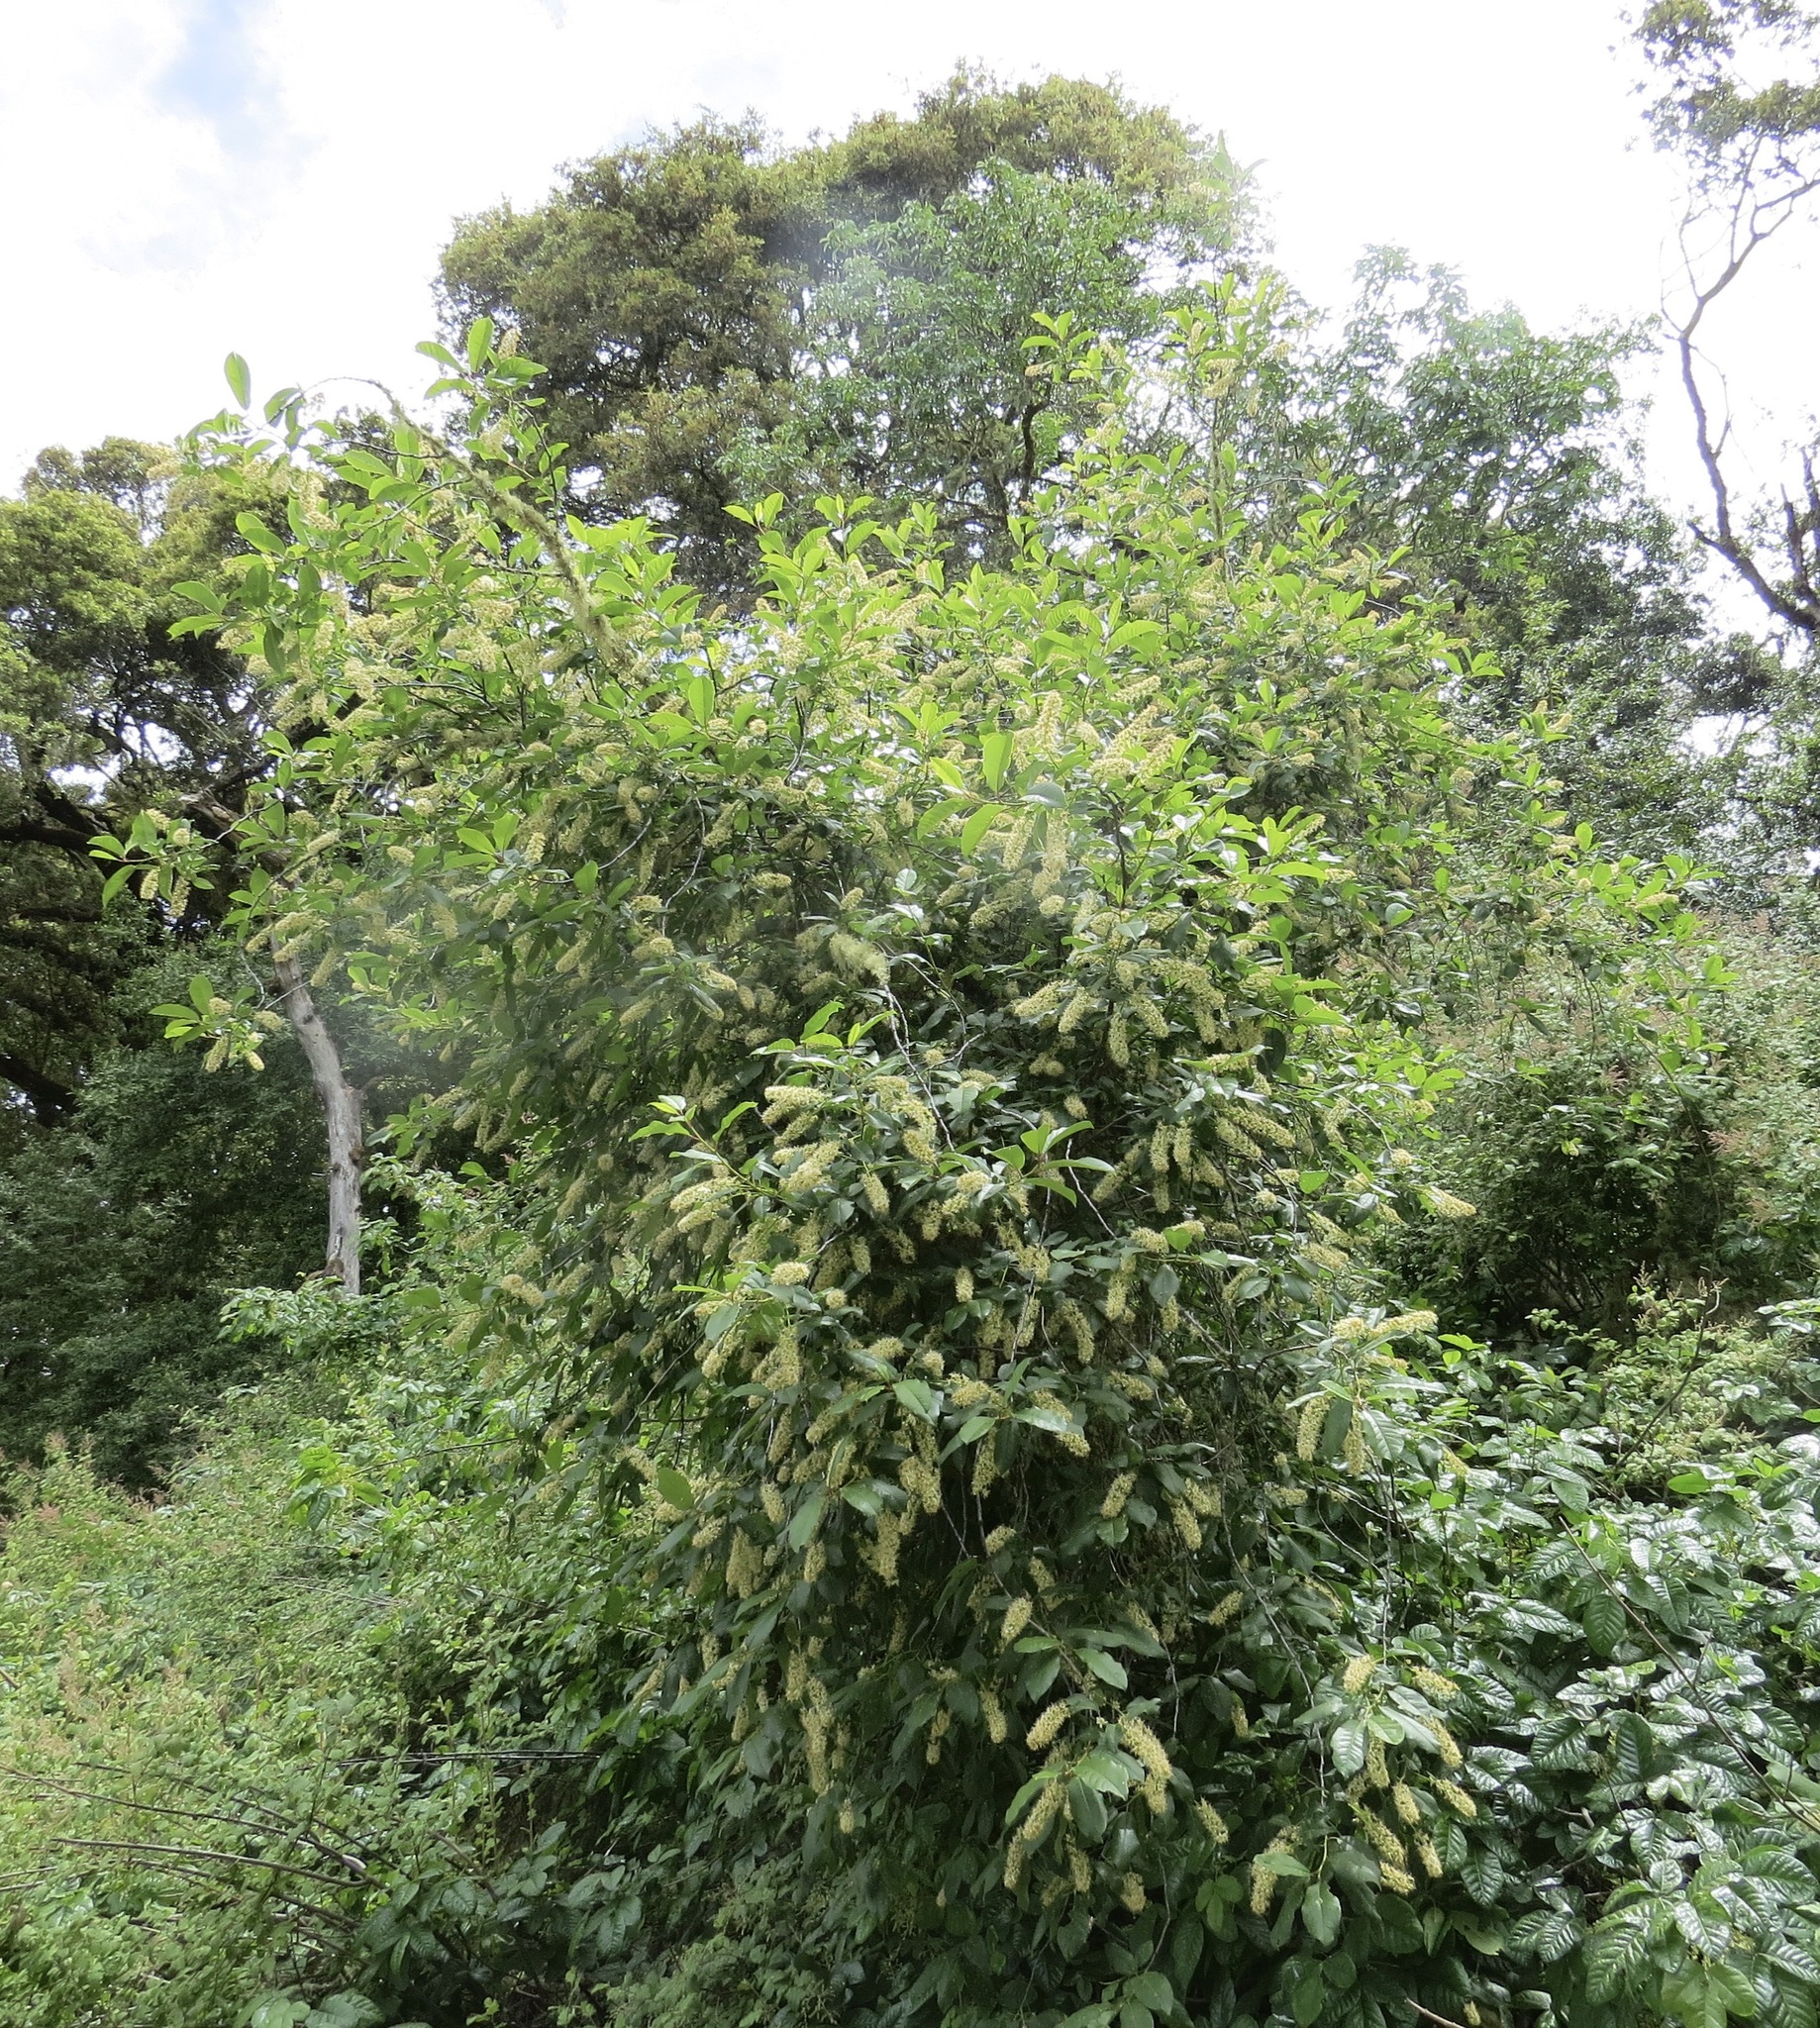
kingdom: Plantae
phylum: Tracheophyta
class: Magnoliopsida
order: Rosales
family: Rosaceae
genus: Prunus
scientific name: Prunus virginiana
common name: Chokecherry
